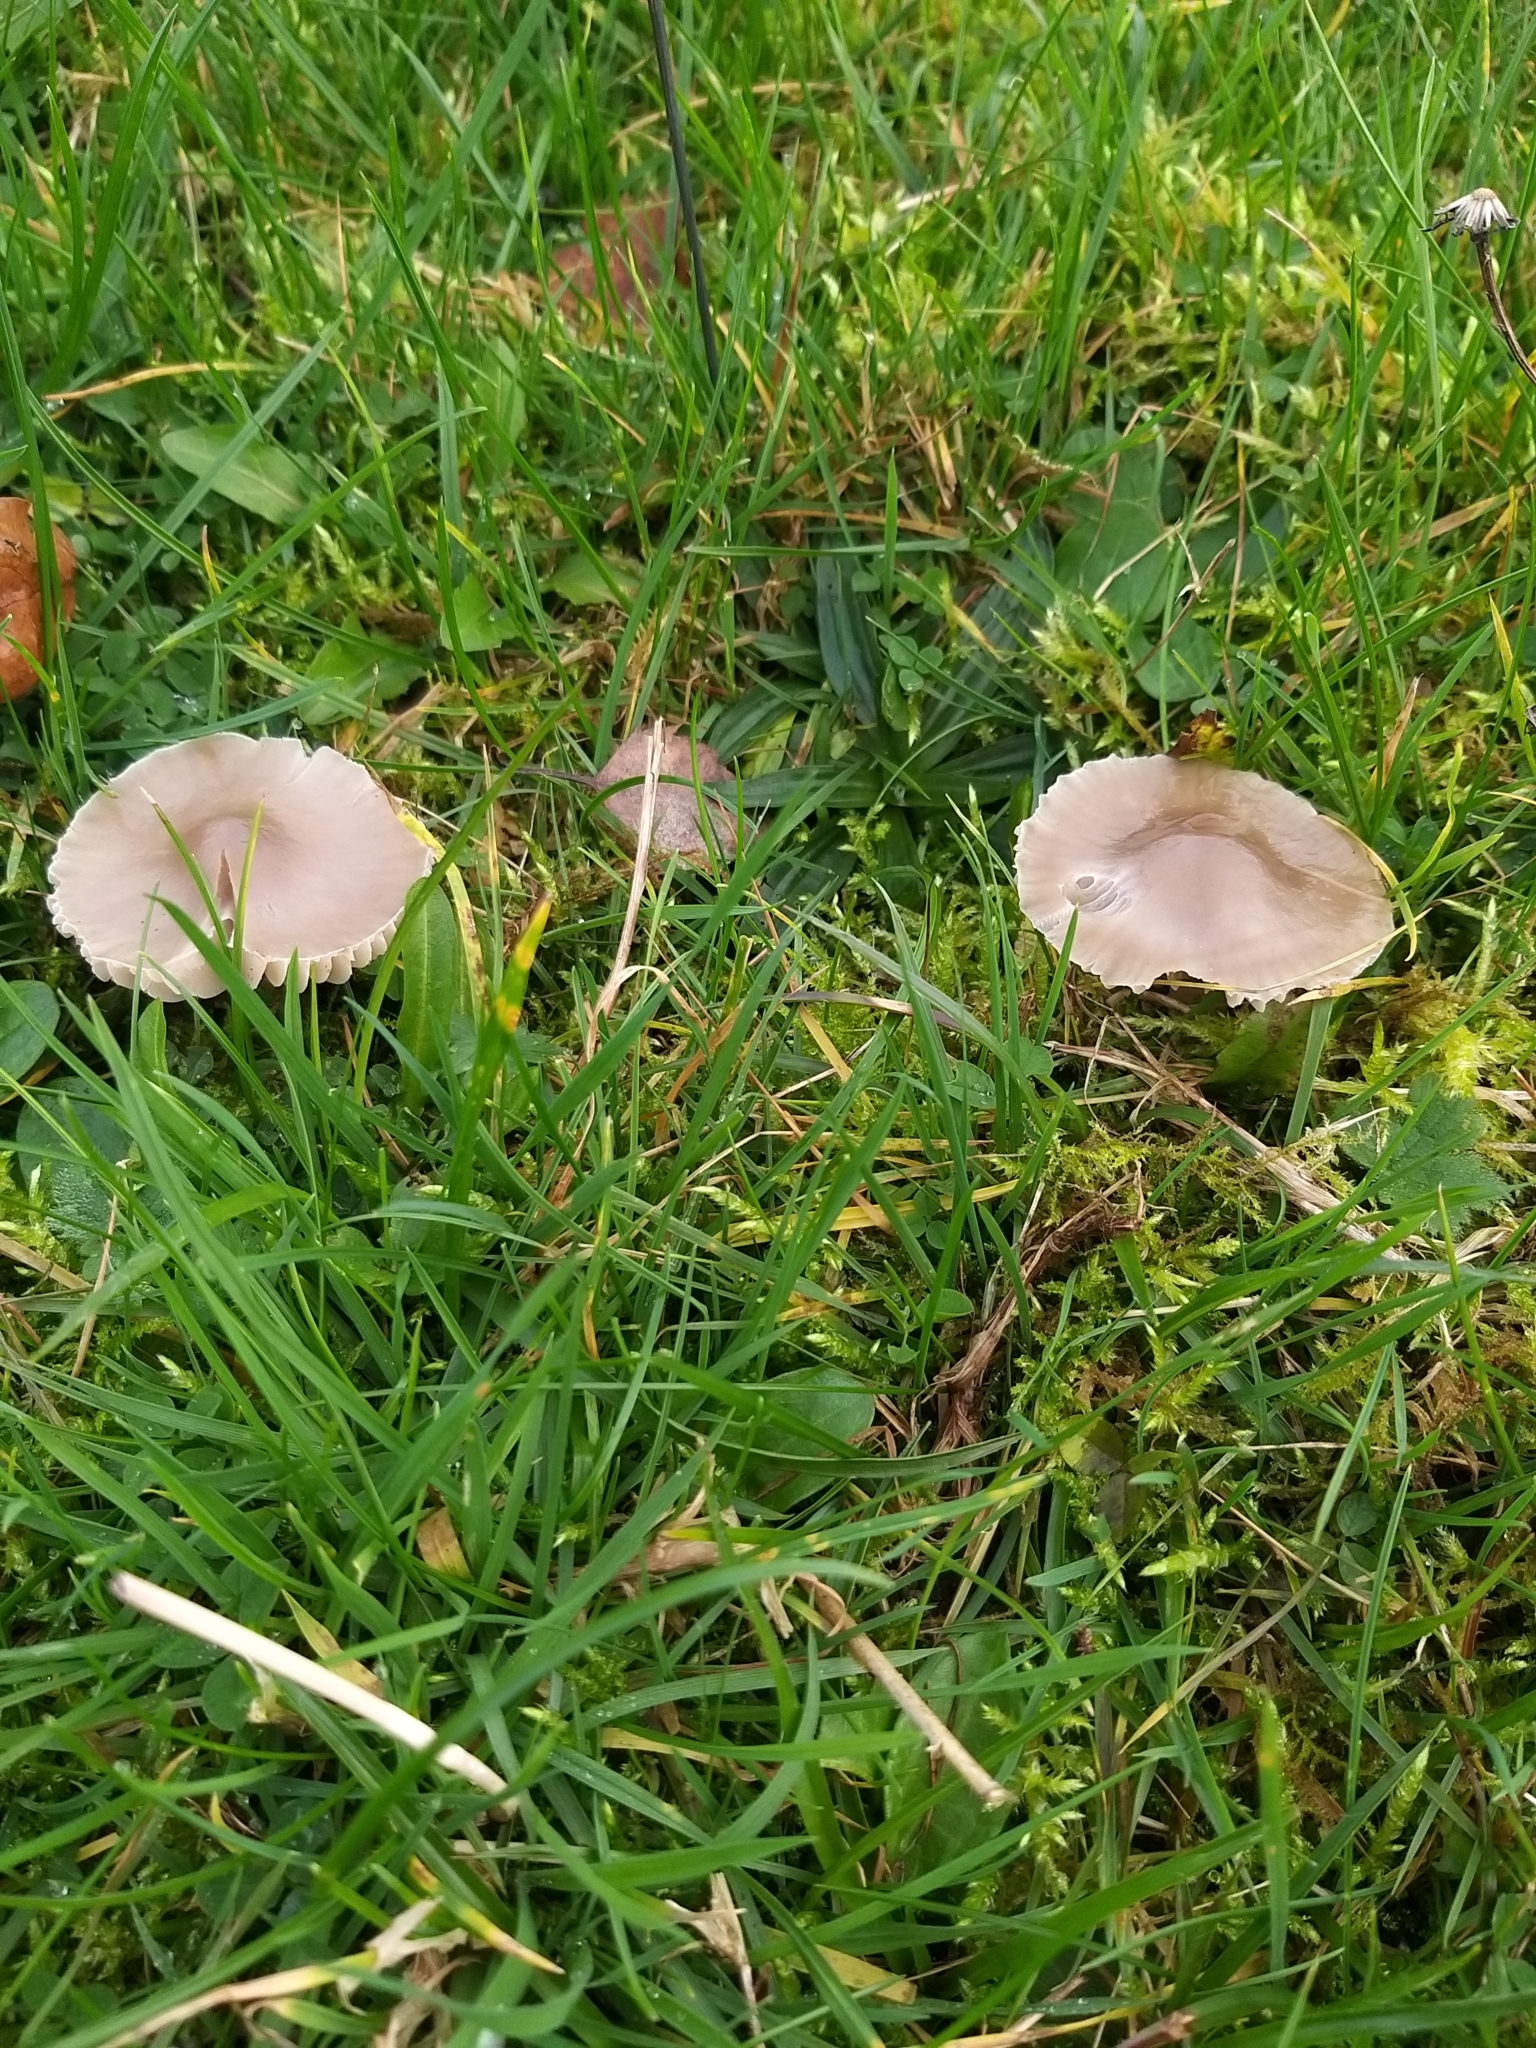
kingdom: Fungi
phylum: Basidiomycota
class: Agaricomycetes
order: Agaricales
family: Hygrophoraceae
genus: Gliophorus
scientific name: Gliophorus irrigatus
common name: Slimy waxcap
